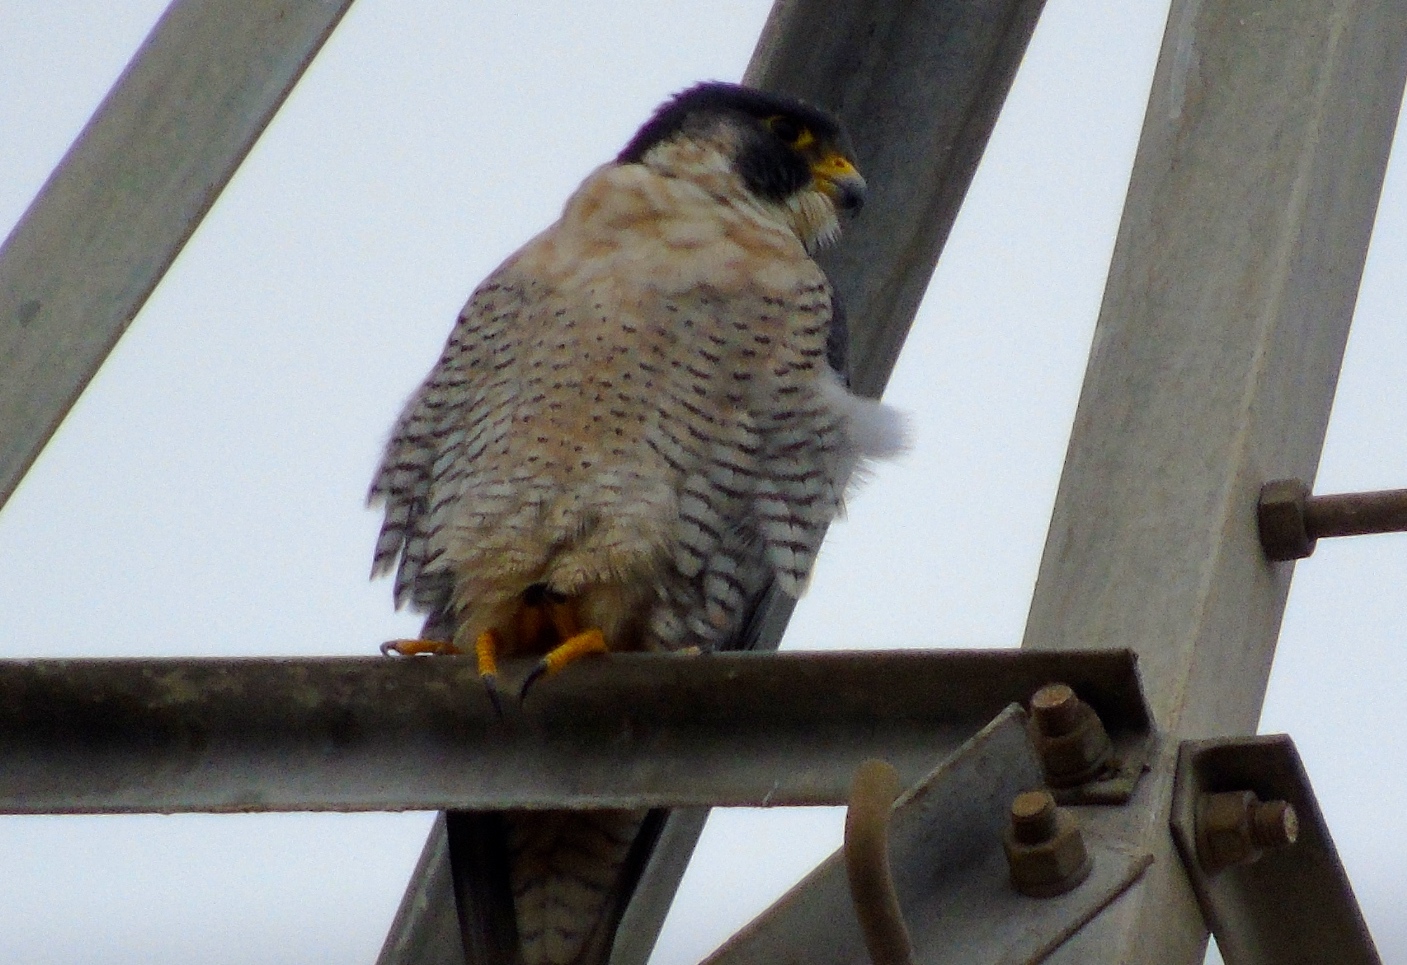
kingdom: Animalia
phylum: Chordata
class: Aves
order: Falconiformes
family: Falconidae
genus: Falco
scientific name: Falco peregrinus
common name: Peregrine falcon
